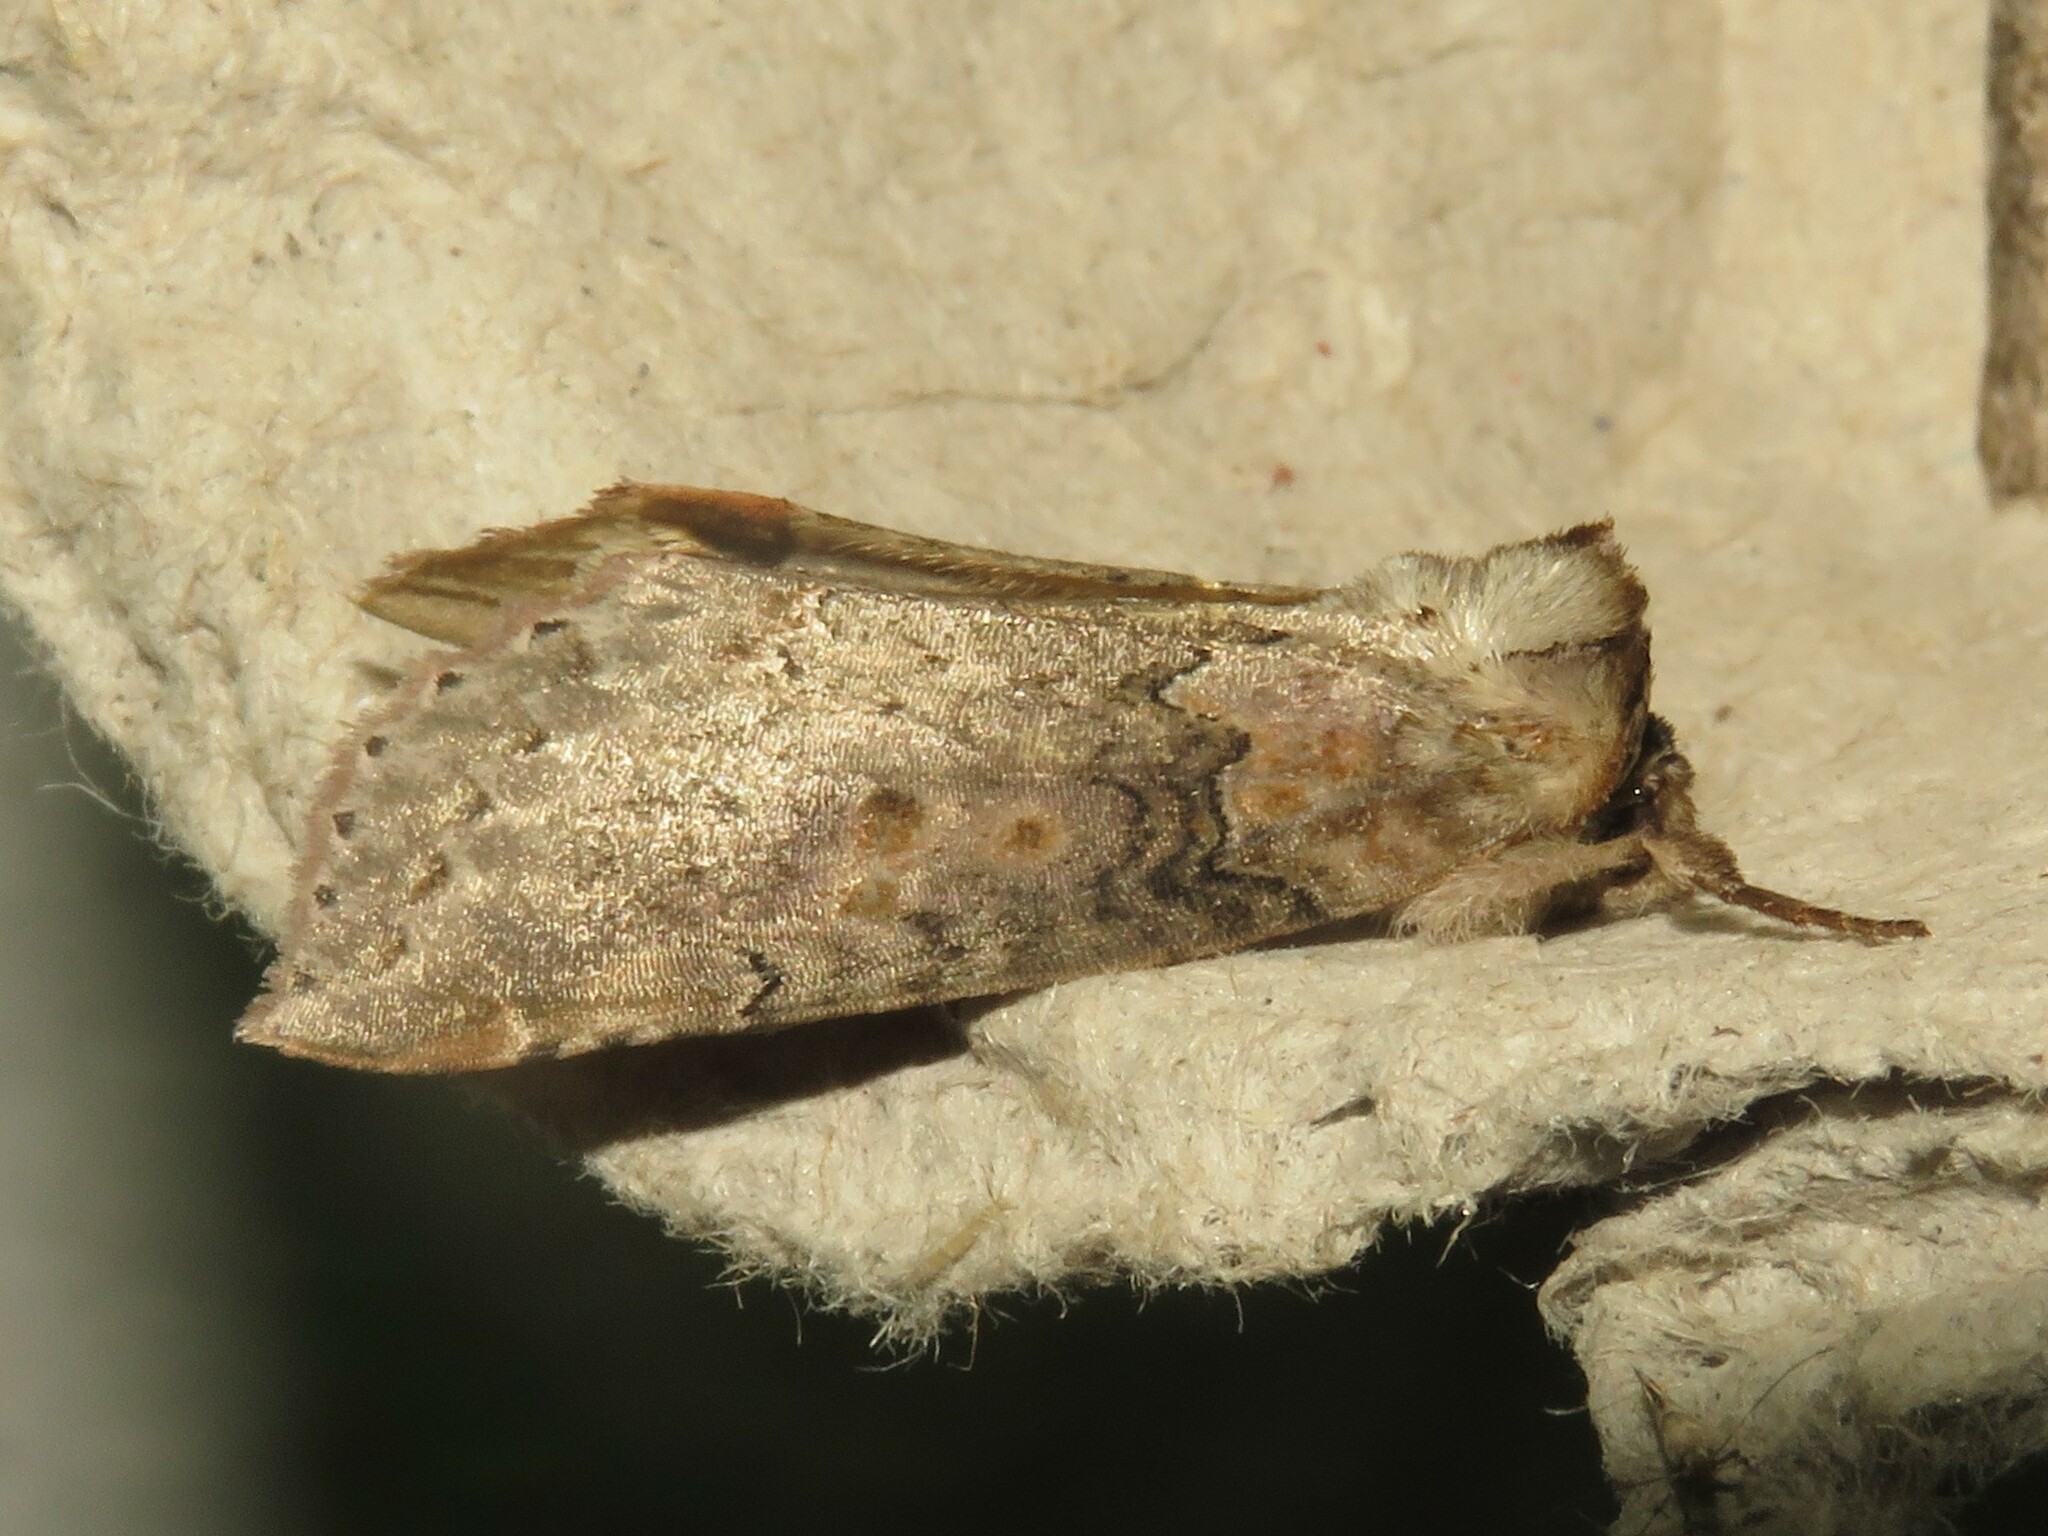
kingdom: Animalia
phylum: Arthropoda
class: Insecta
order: Lepidoptera
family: Drepanidae
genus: Pseudothyatira
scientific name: Pseudothyatira cymatophoroides
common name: Tufted thyatirid moth
